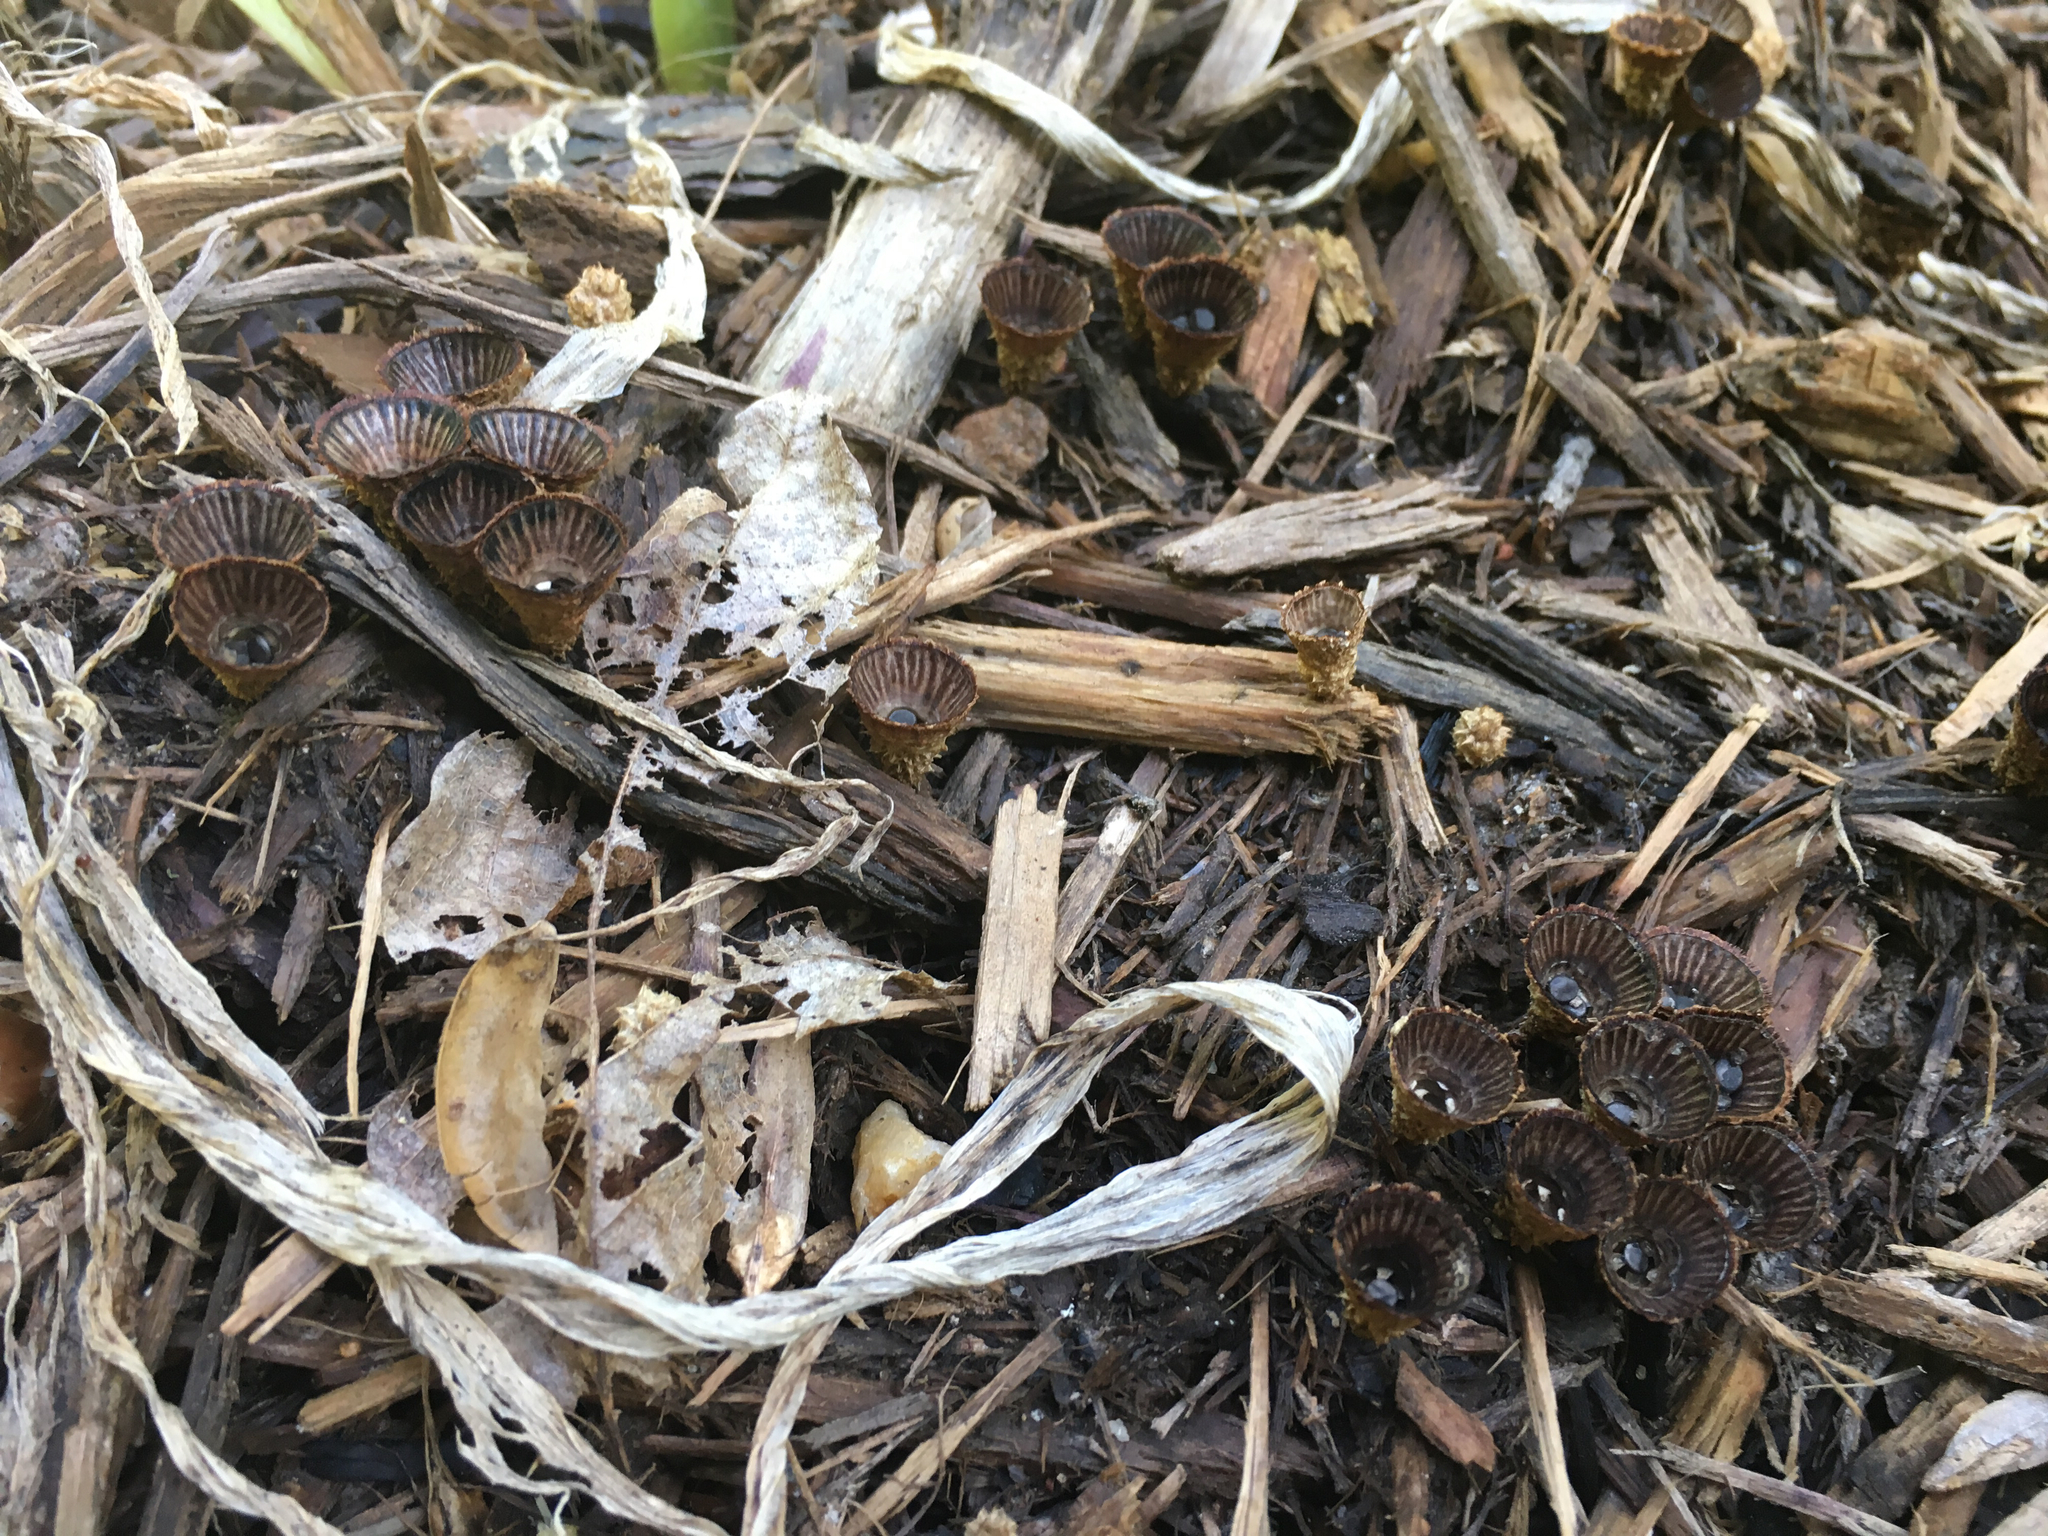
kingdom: Fungi
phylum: Basidiomycota
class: Agaricomycetes
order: Agaricales
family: Agaricaceae
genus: Cyathus
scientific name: Cyathus striatus
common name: Fluted bird's nest
